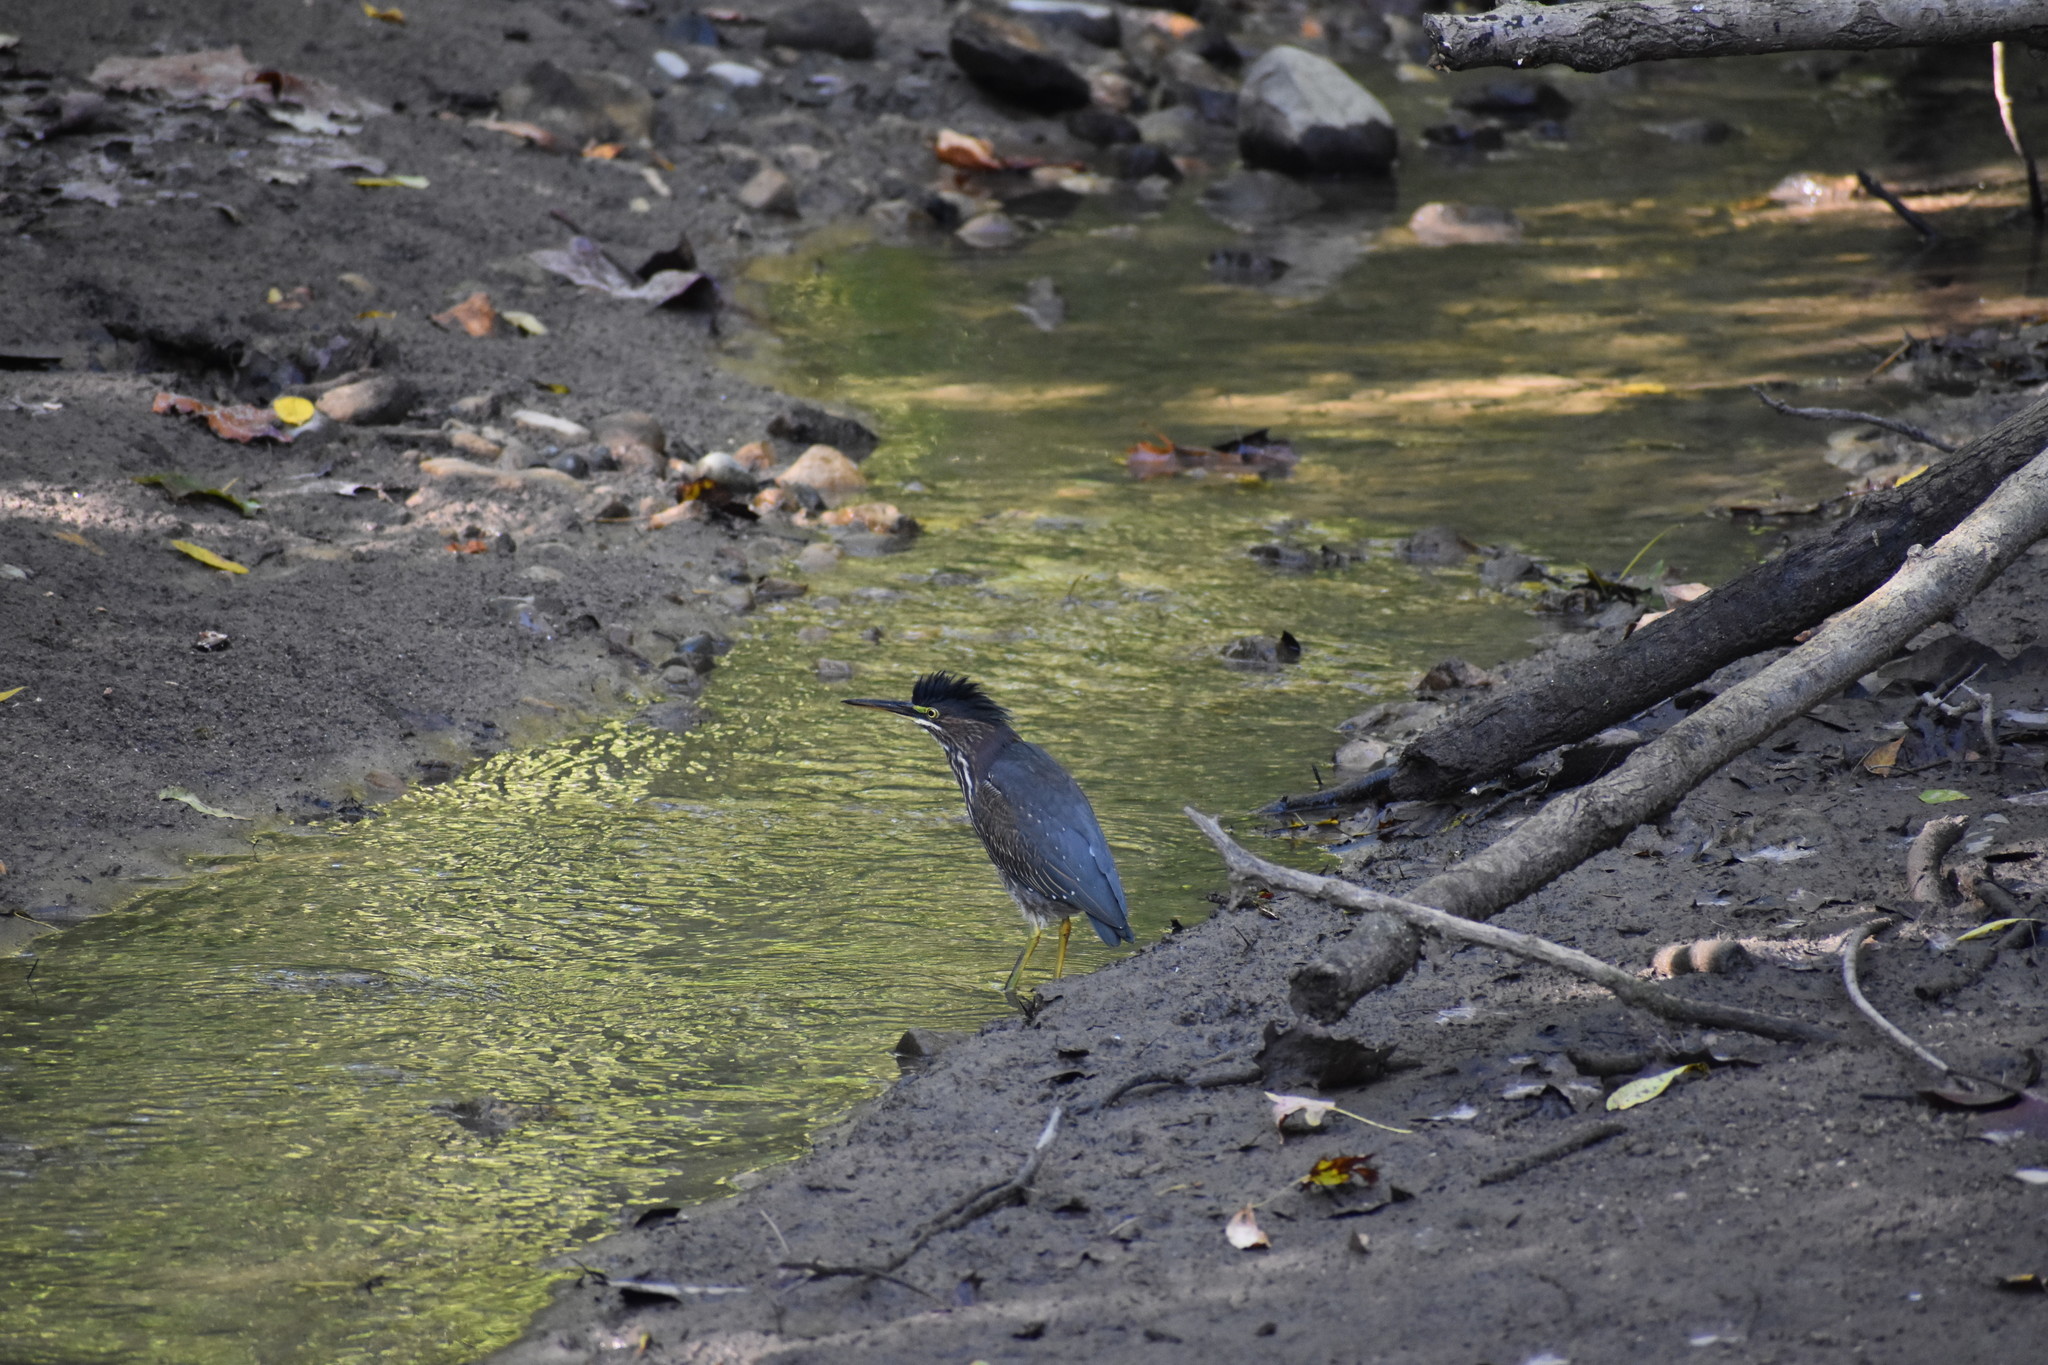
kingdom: Animalia
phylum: Chordata
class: Aves
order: Pelecaniformes
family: Ardeidae
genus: Butorides
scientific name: Butorides virescens
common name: Green heron
